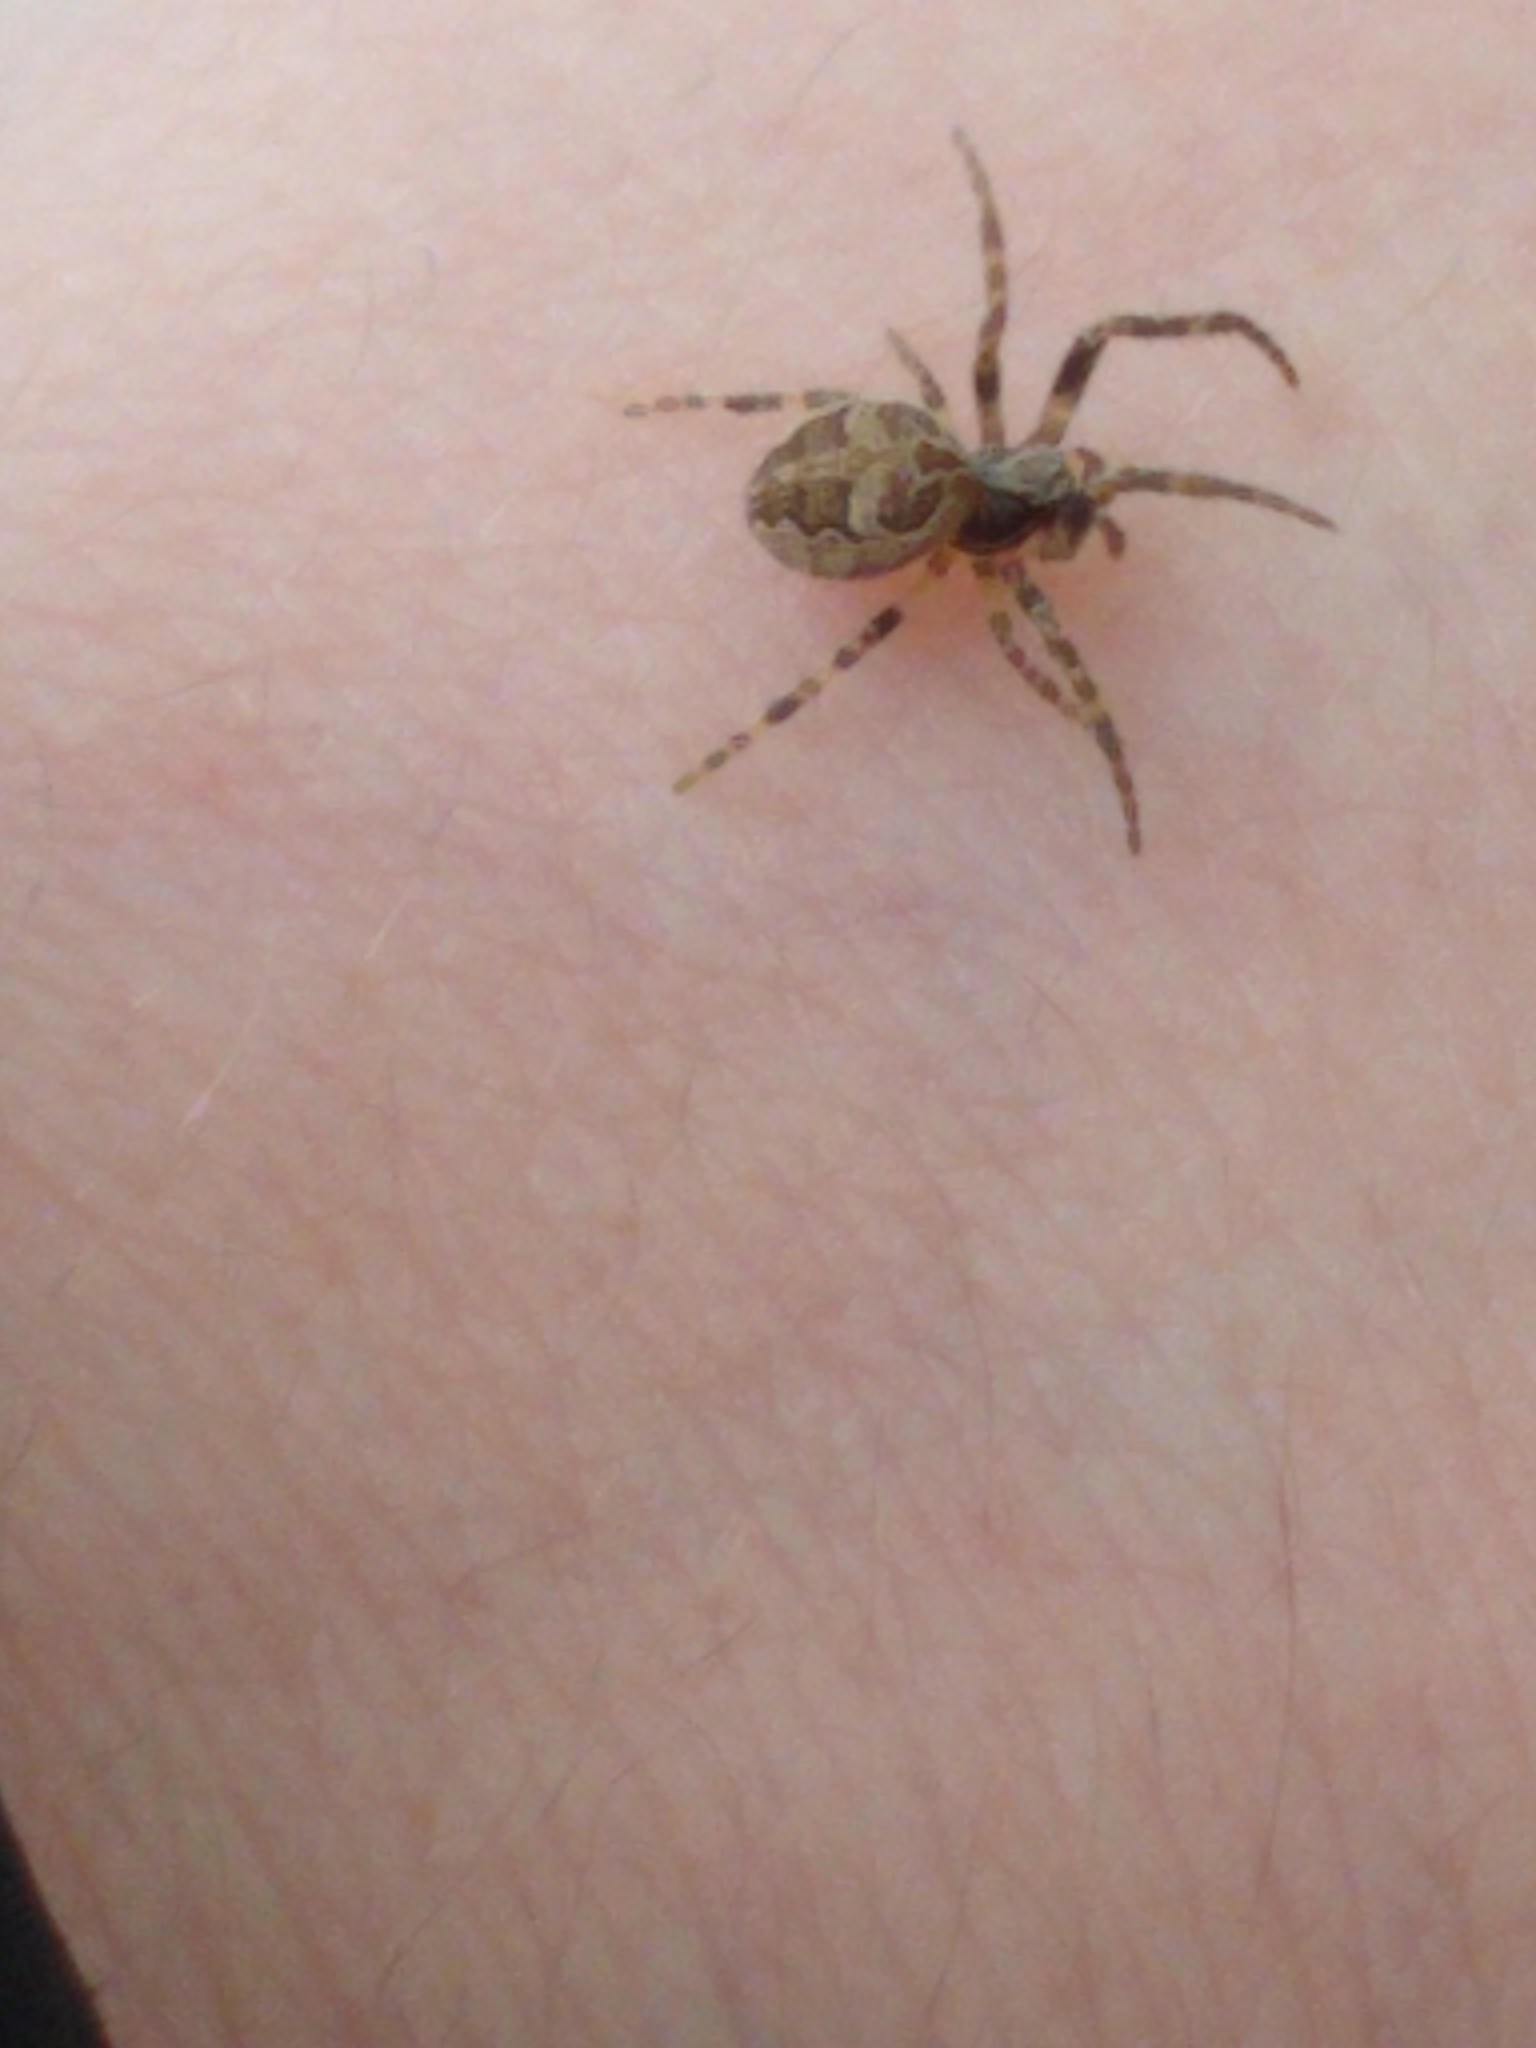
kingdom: Animalia
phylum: Arthropoda
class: Arachnida
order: Araneae
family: Araneidae
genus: Larinioides
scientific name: Larinioides sclopetarius
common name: Bridge orbweaver
